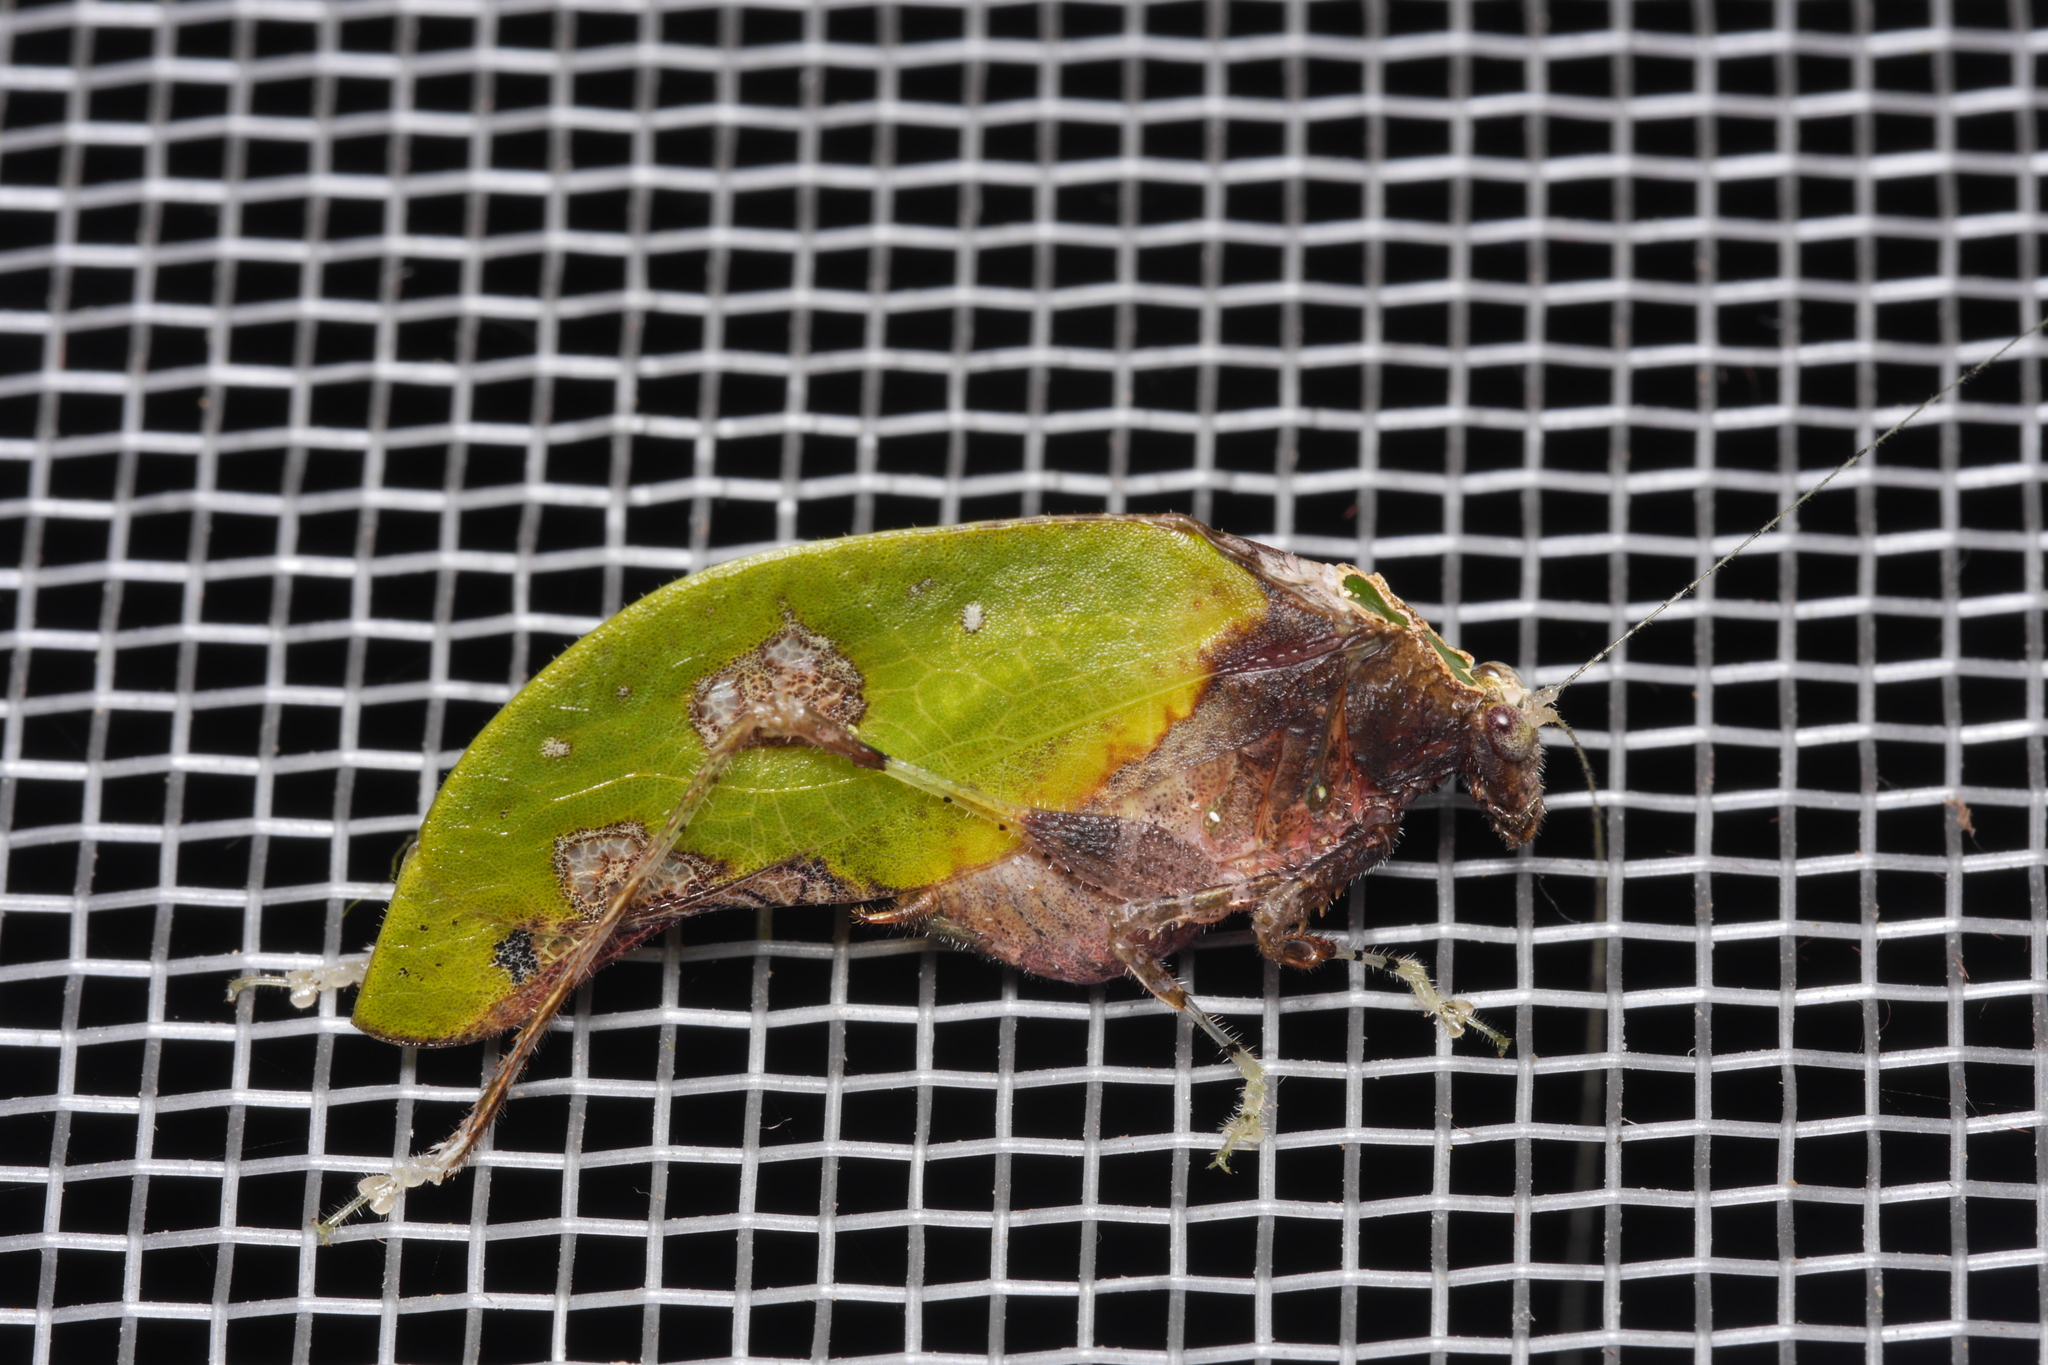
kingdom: Animalia
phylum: Arthropoda
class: Insecta
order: Orthoptera
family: Tettigoniidae
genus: Pycnopalpa
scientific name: Pycnopalpa bicordata
